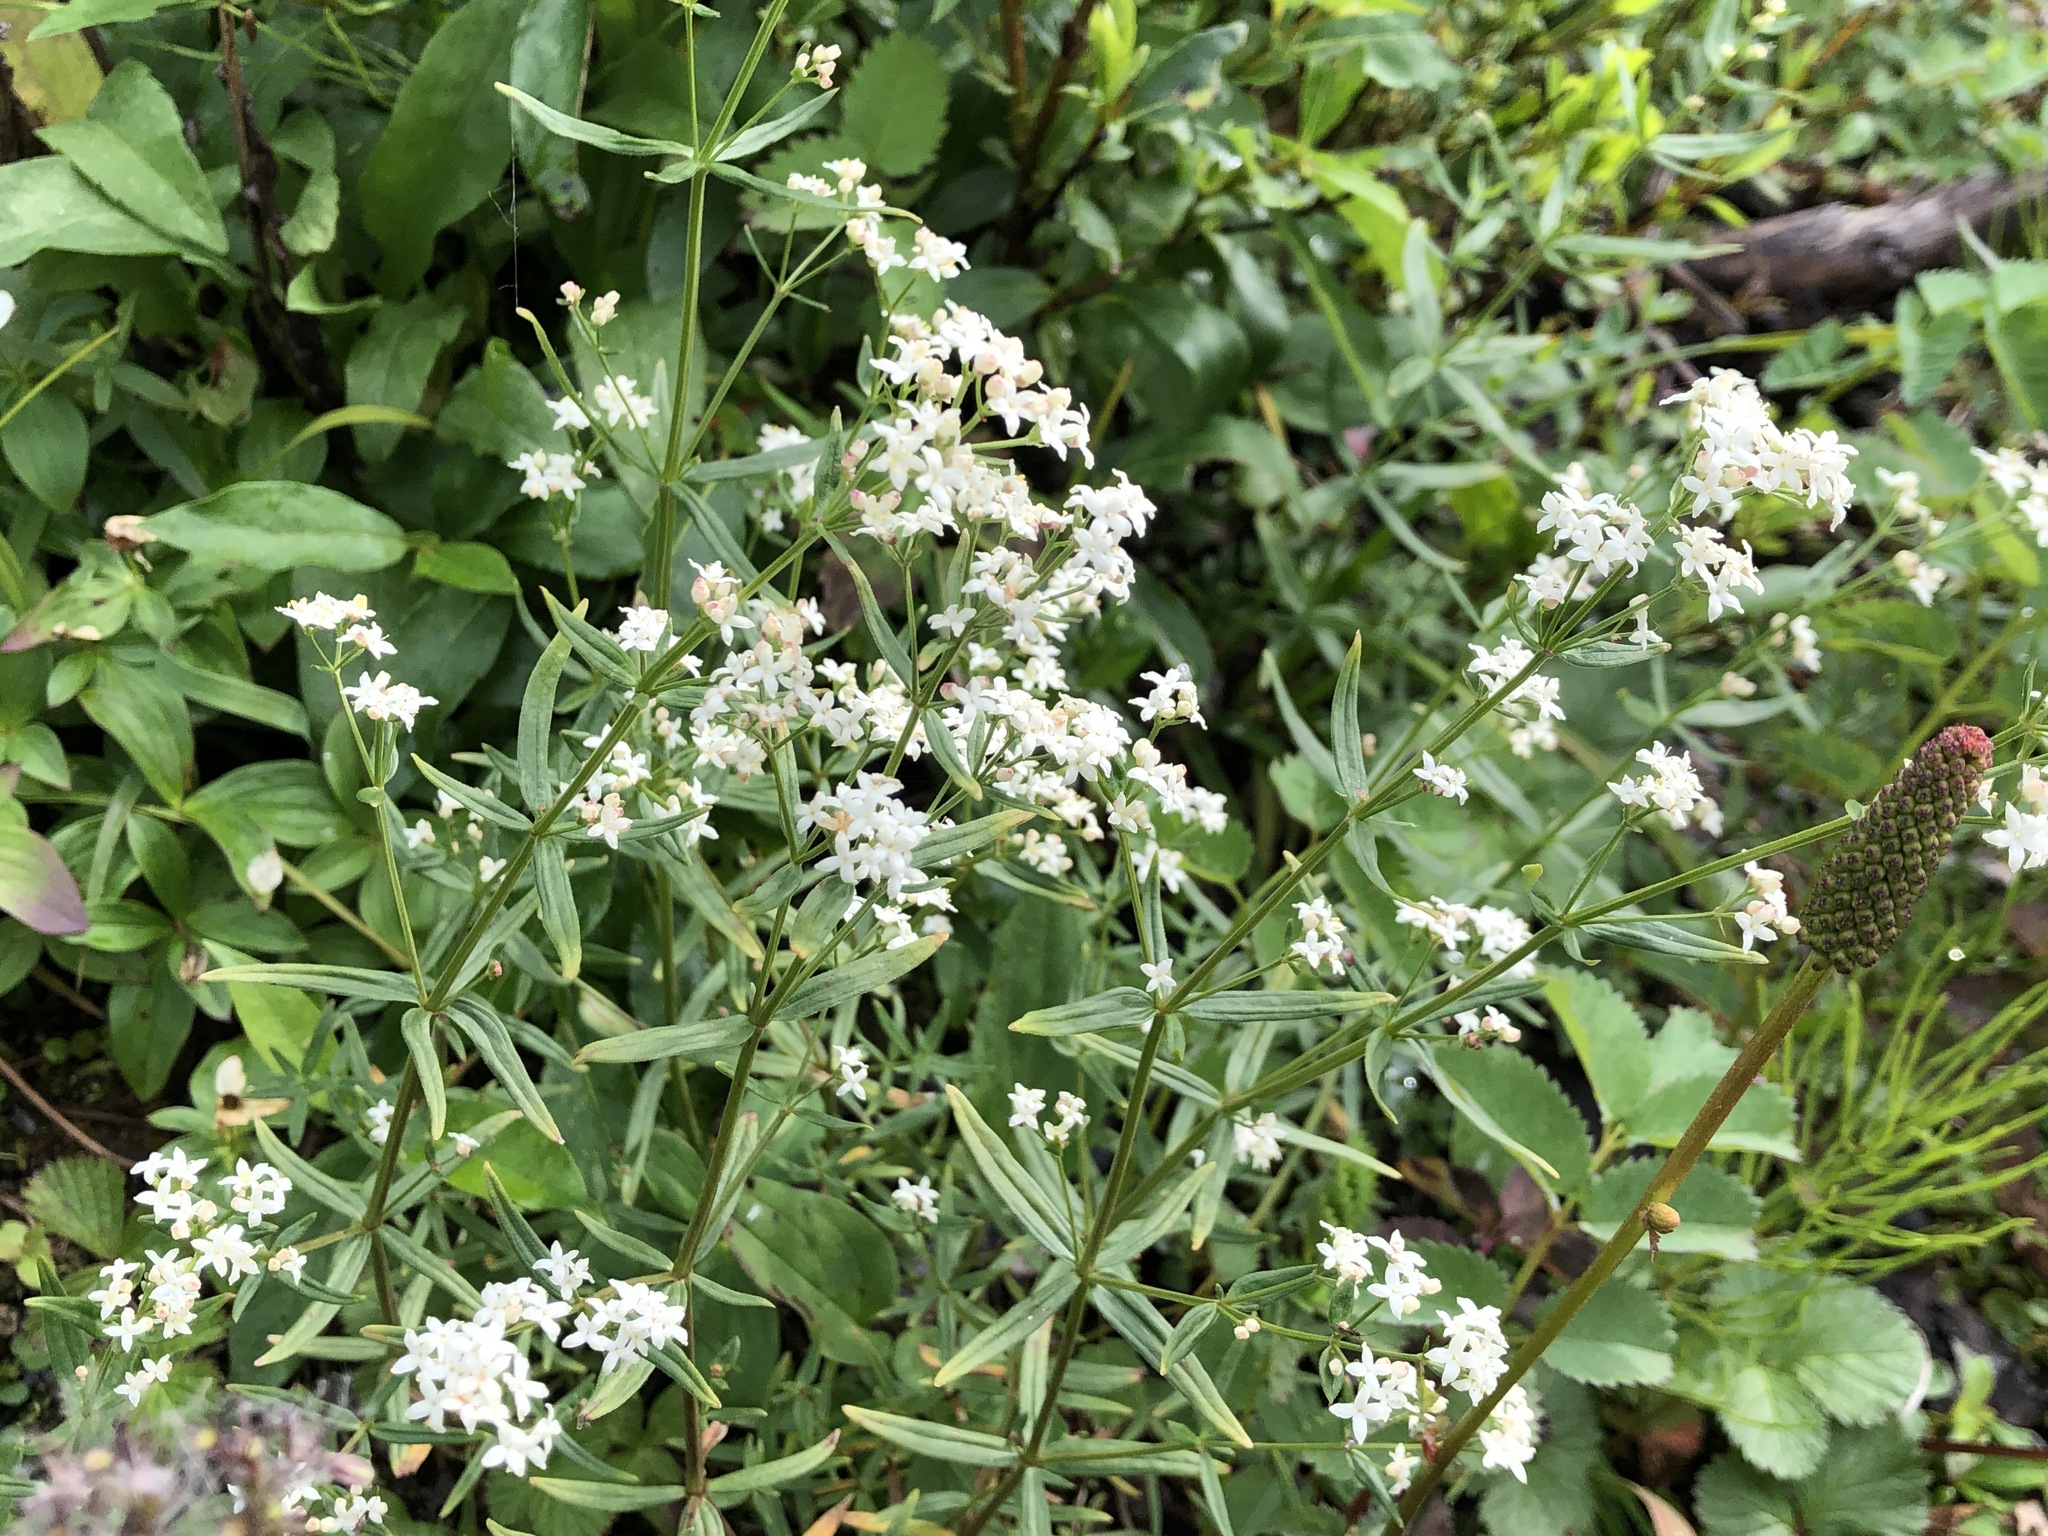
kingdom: Plantae
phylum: Tracheophyta
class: Magnoliopsida
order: Gentianales
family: Rubiaceae
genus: Galium
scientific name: Galium boreale
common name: Northern bedstraw
